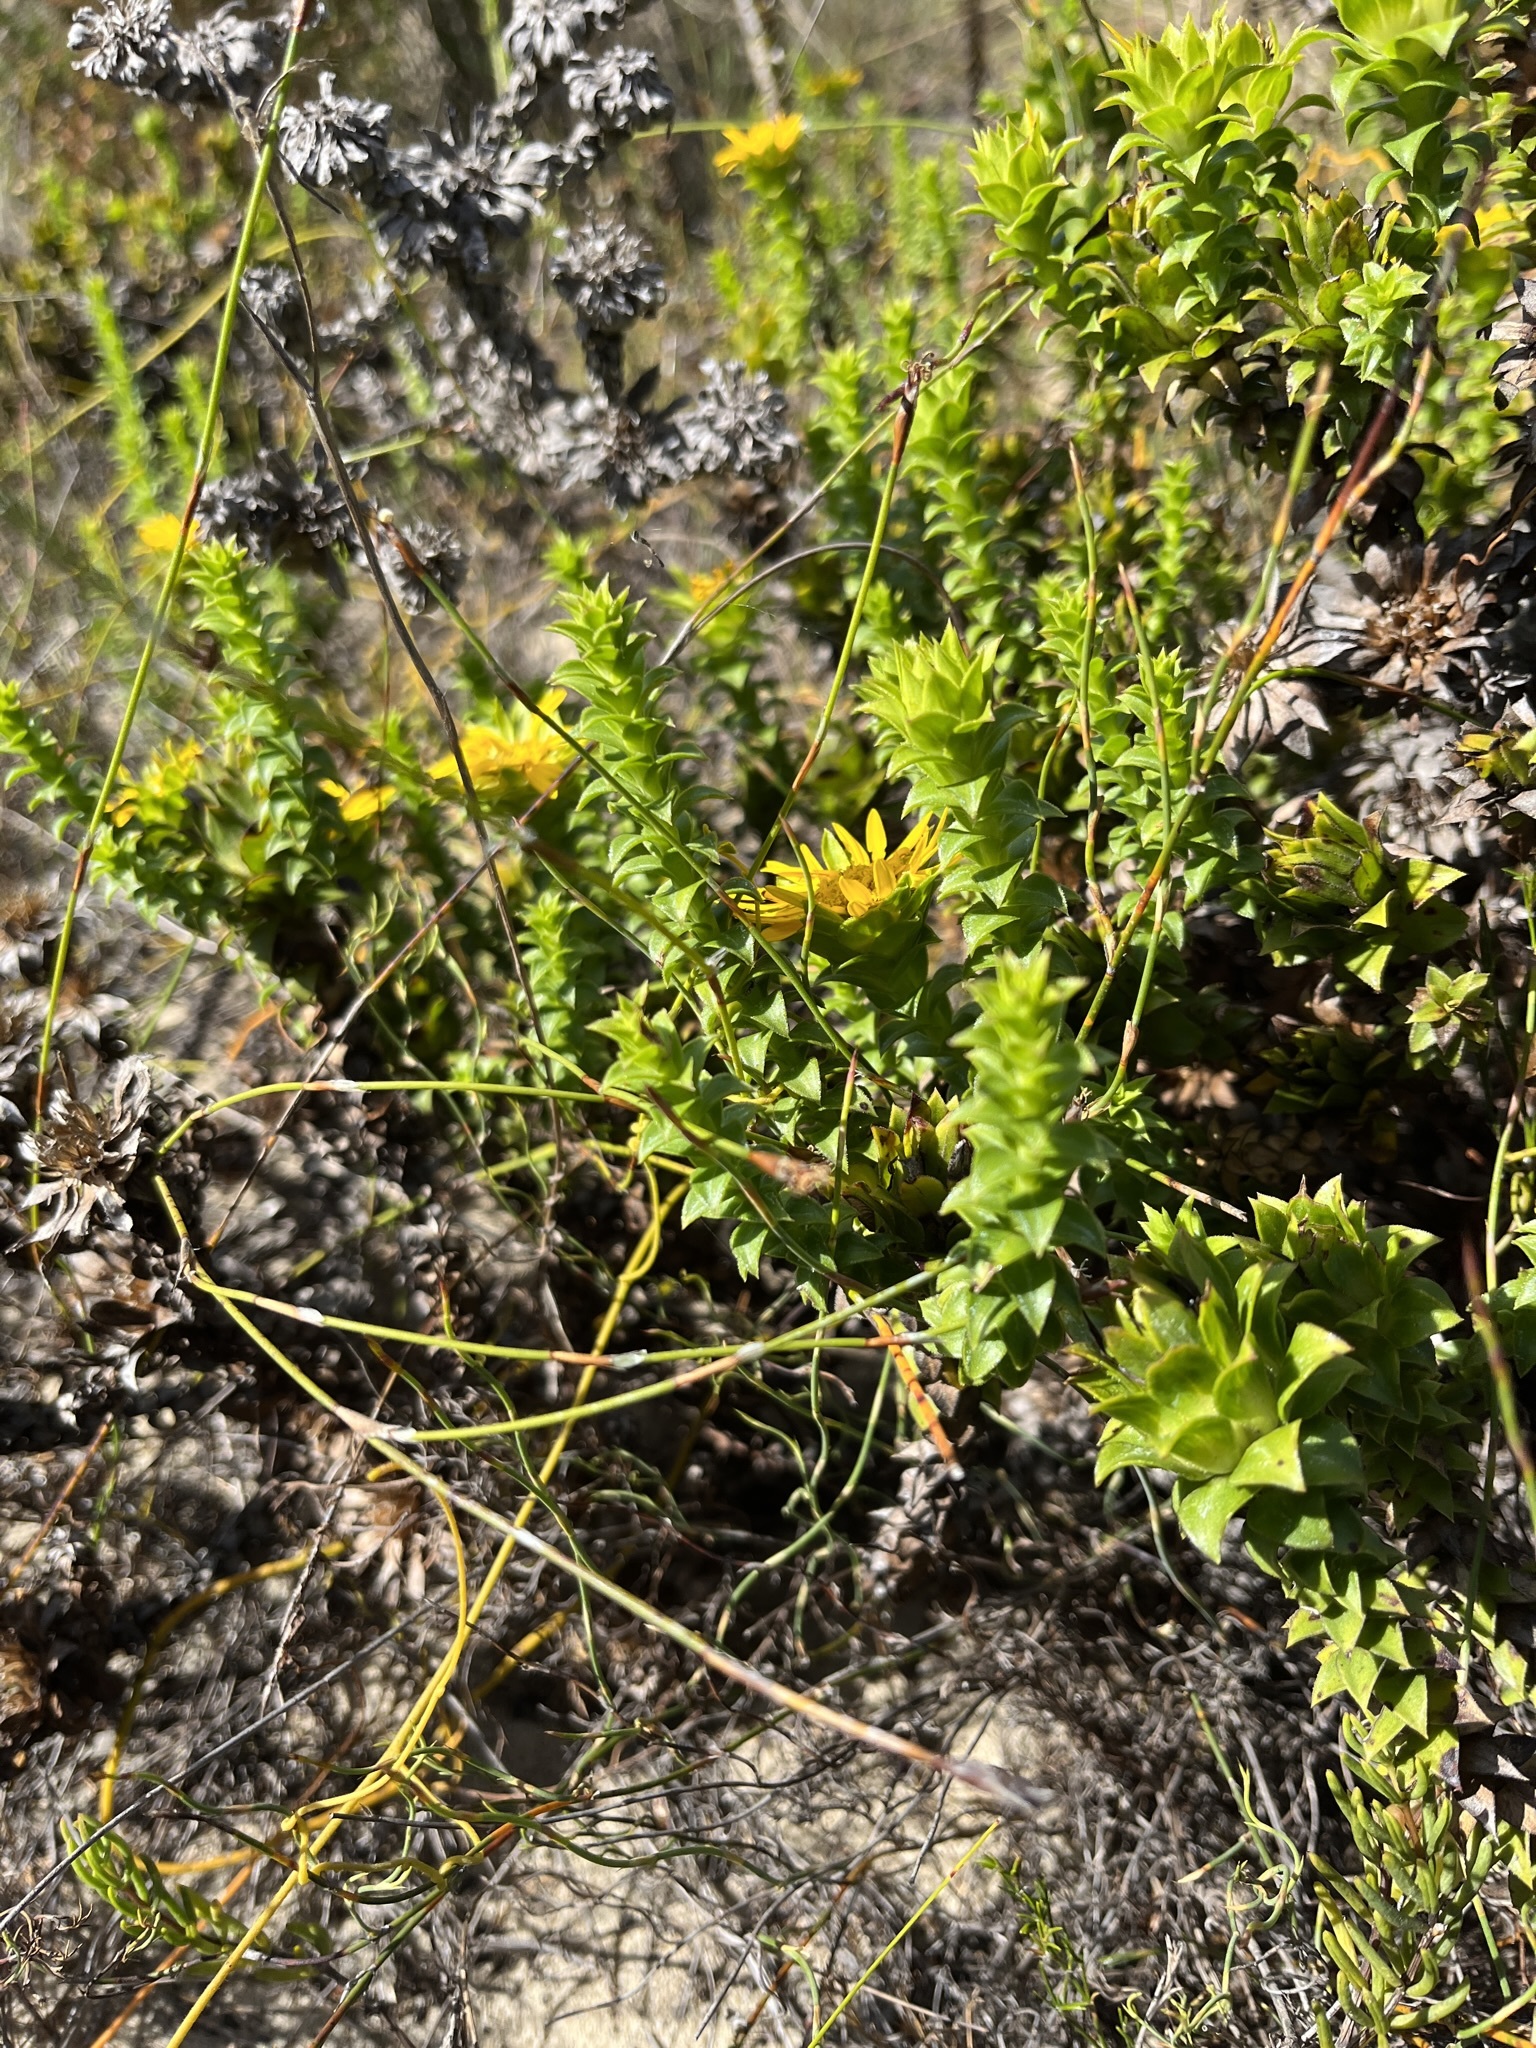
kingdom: Plantae
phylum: Tracheophyta
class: Magnoliopsida
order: Asterales
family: Asteraceae
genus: Oedera
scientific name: Oedera capensis
